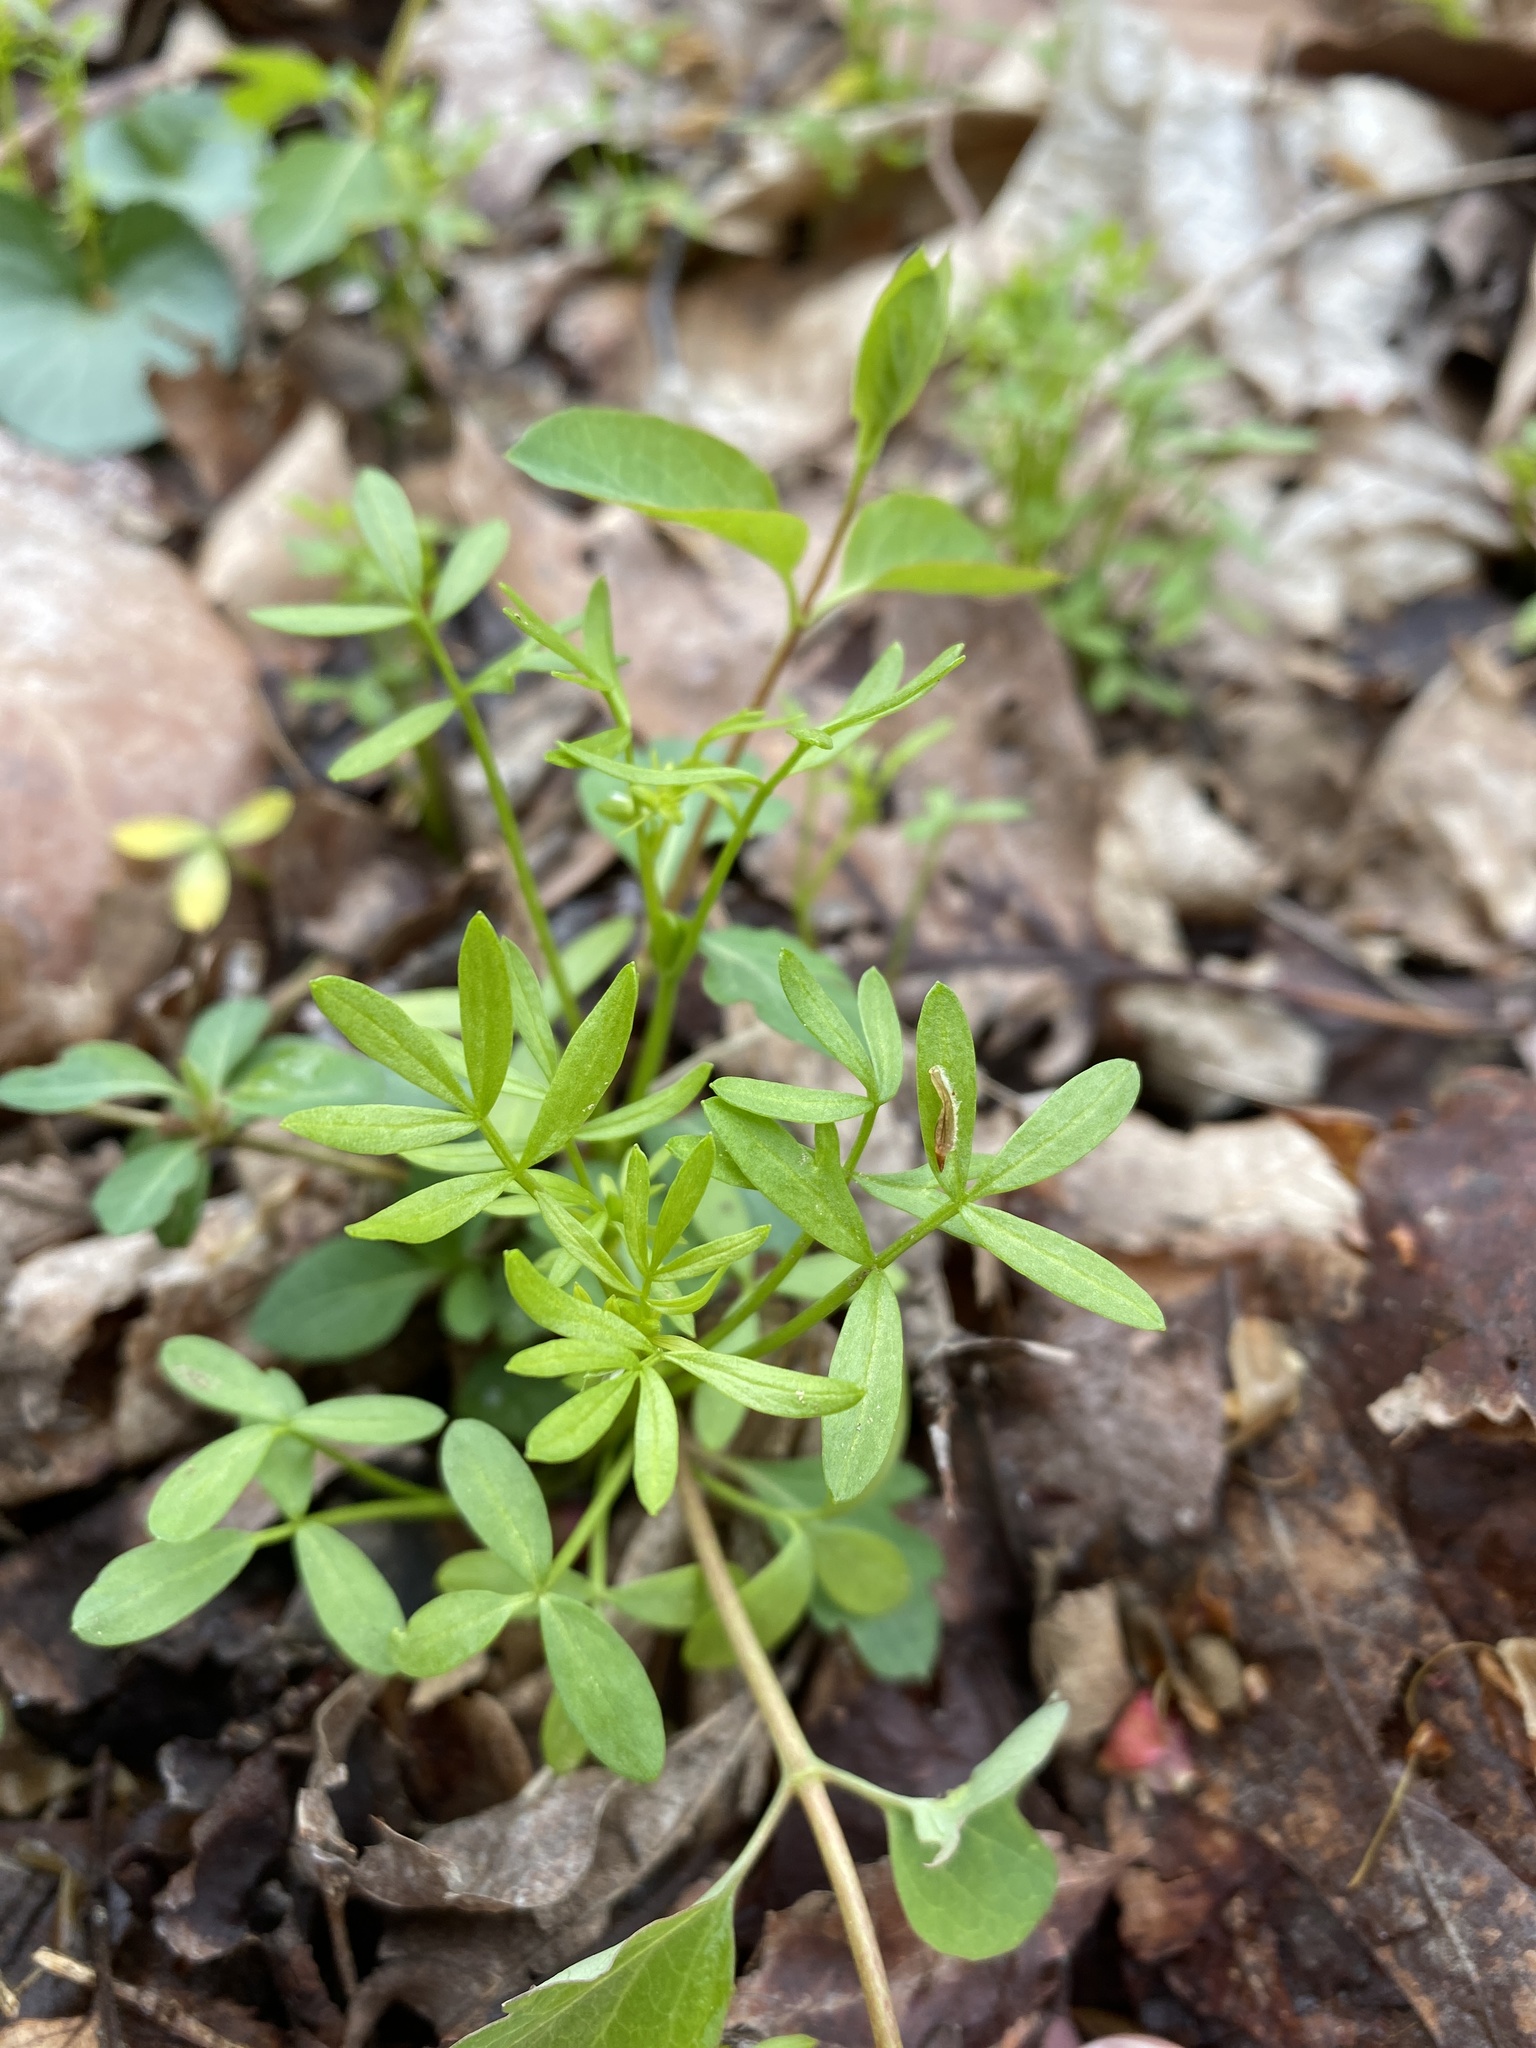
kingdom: Plantae
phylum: Tracheophyta
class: Magnoliopsida
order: Brassicales
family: Limnanthaceae
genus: Floerkea
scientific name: Floerkea proserpinacoides
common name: False mermaid
